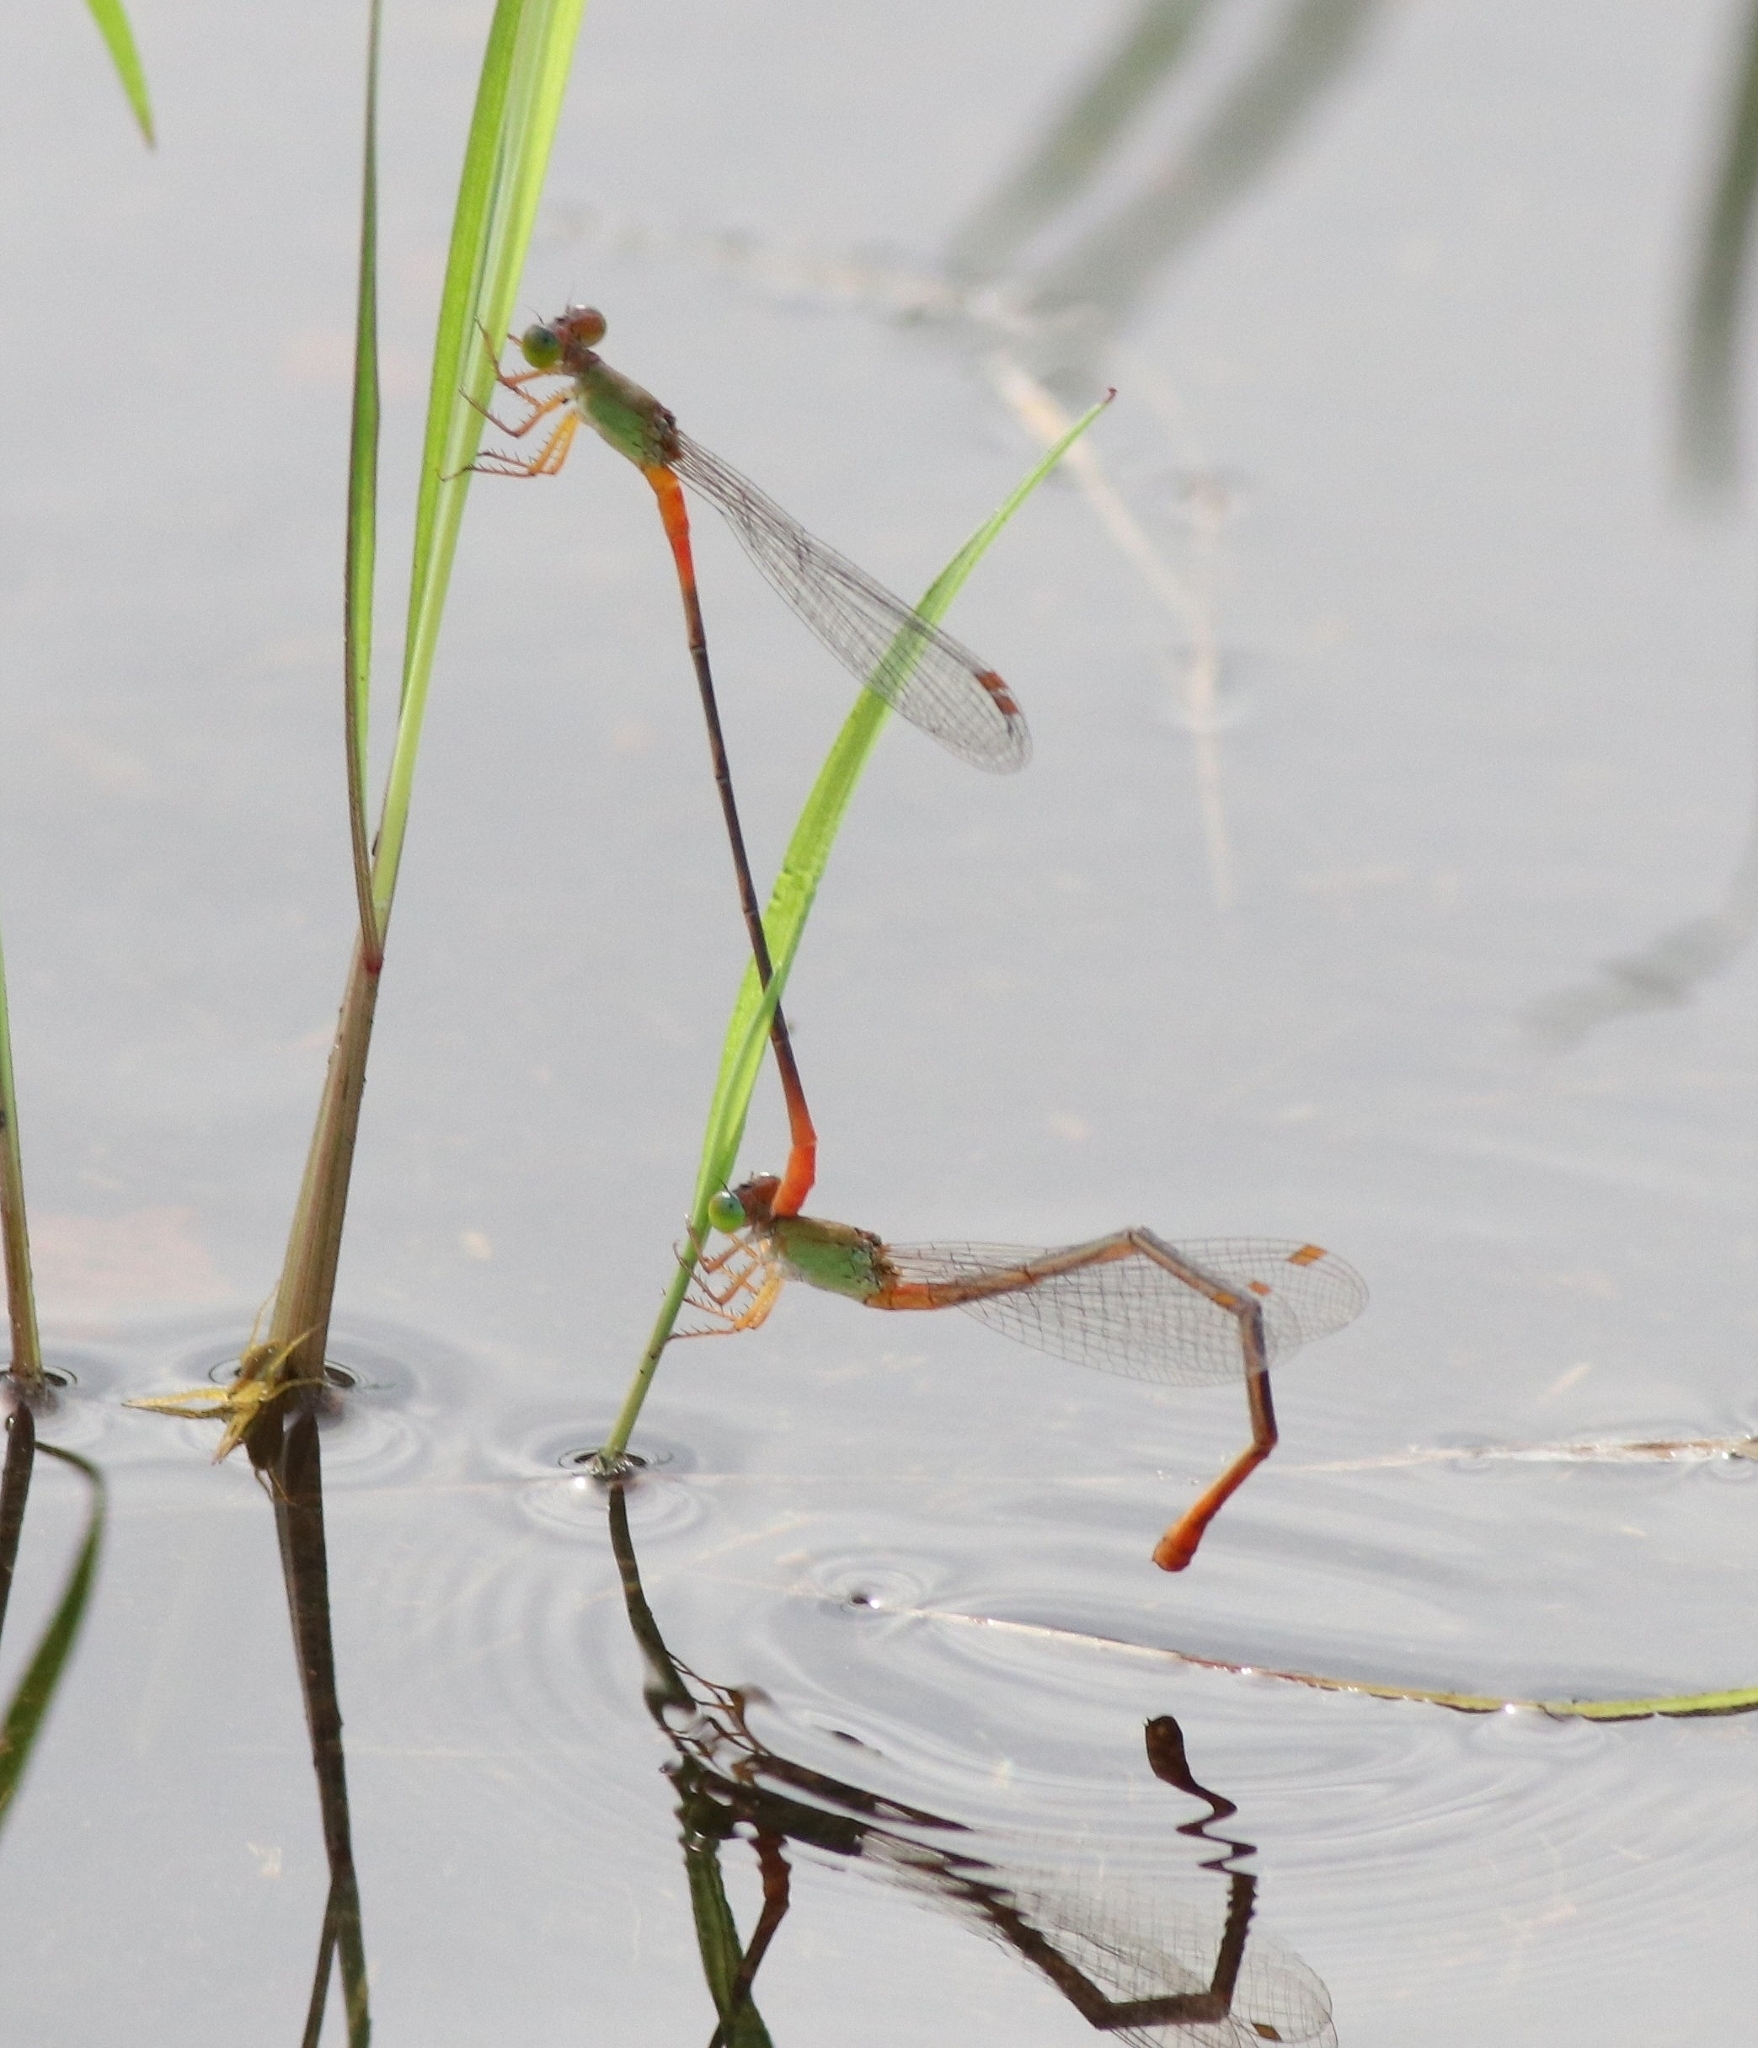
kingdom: Animalia
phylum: Arthropoda
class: Insecta
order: Odonata
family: Coenagrionidae
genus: Ceriagrion
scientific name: Ceriagrion cerinorubellum
